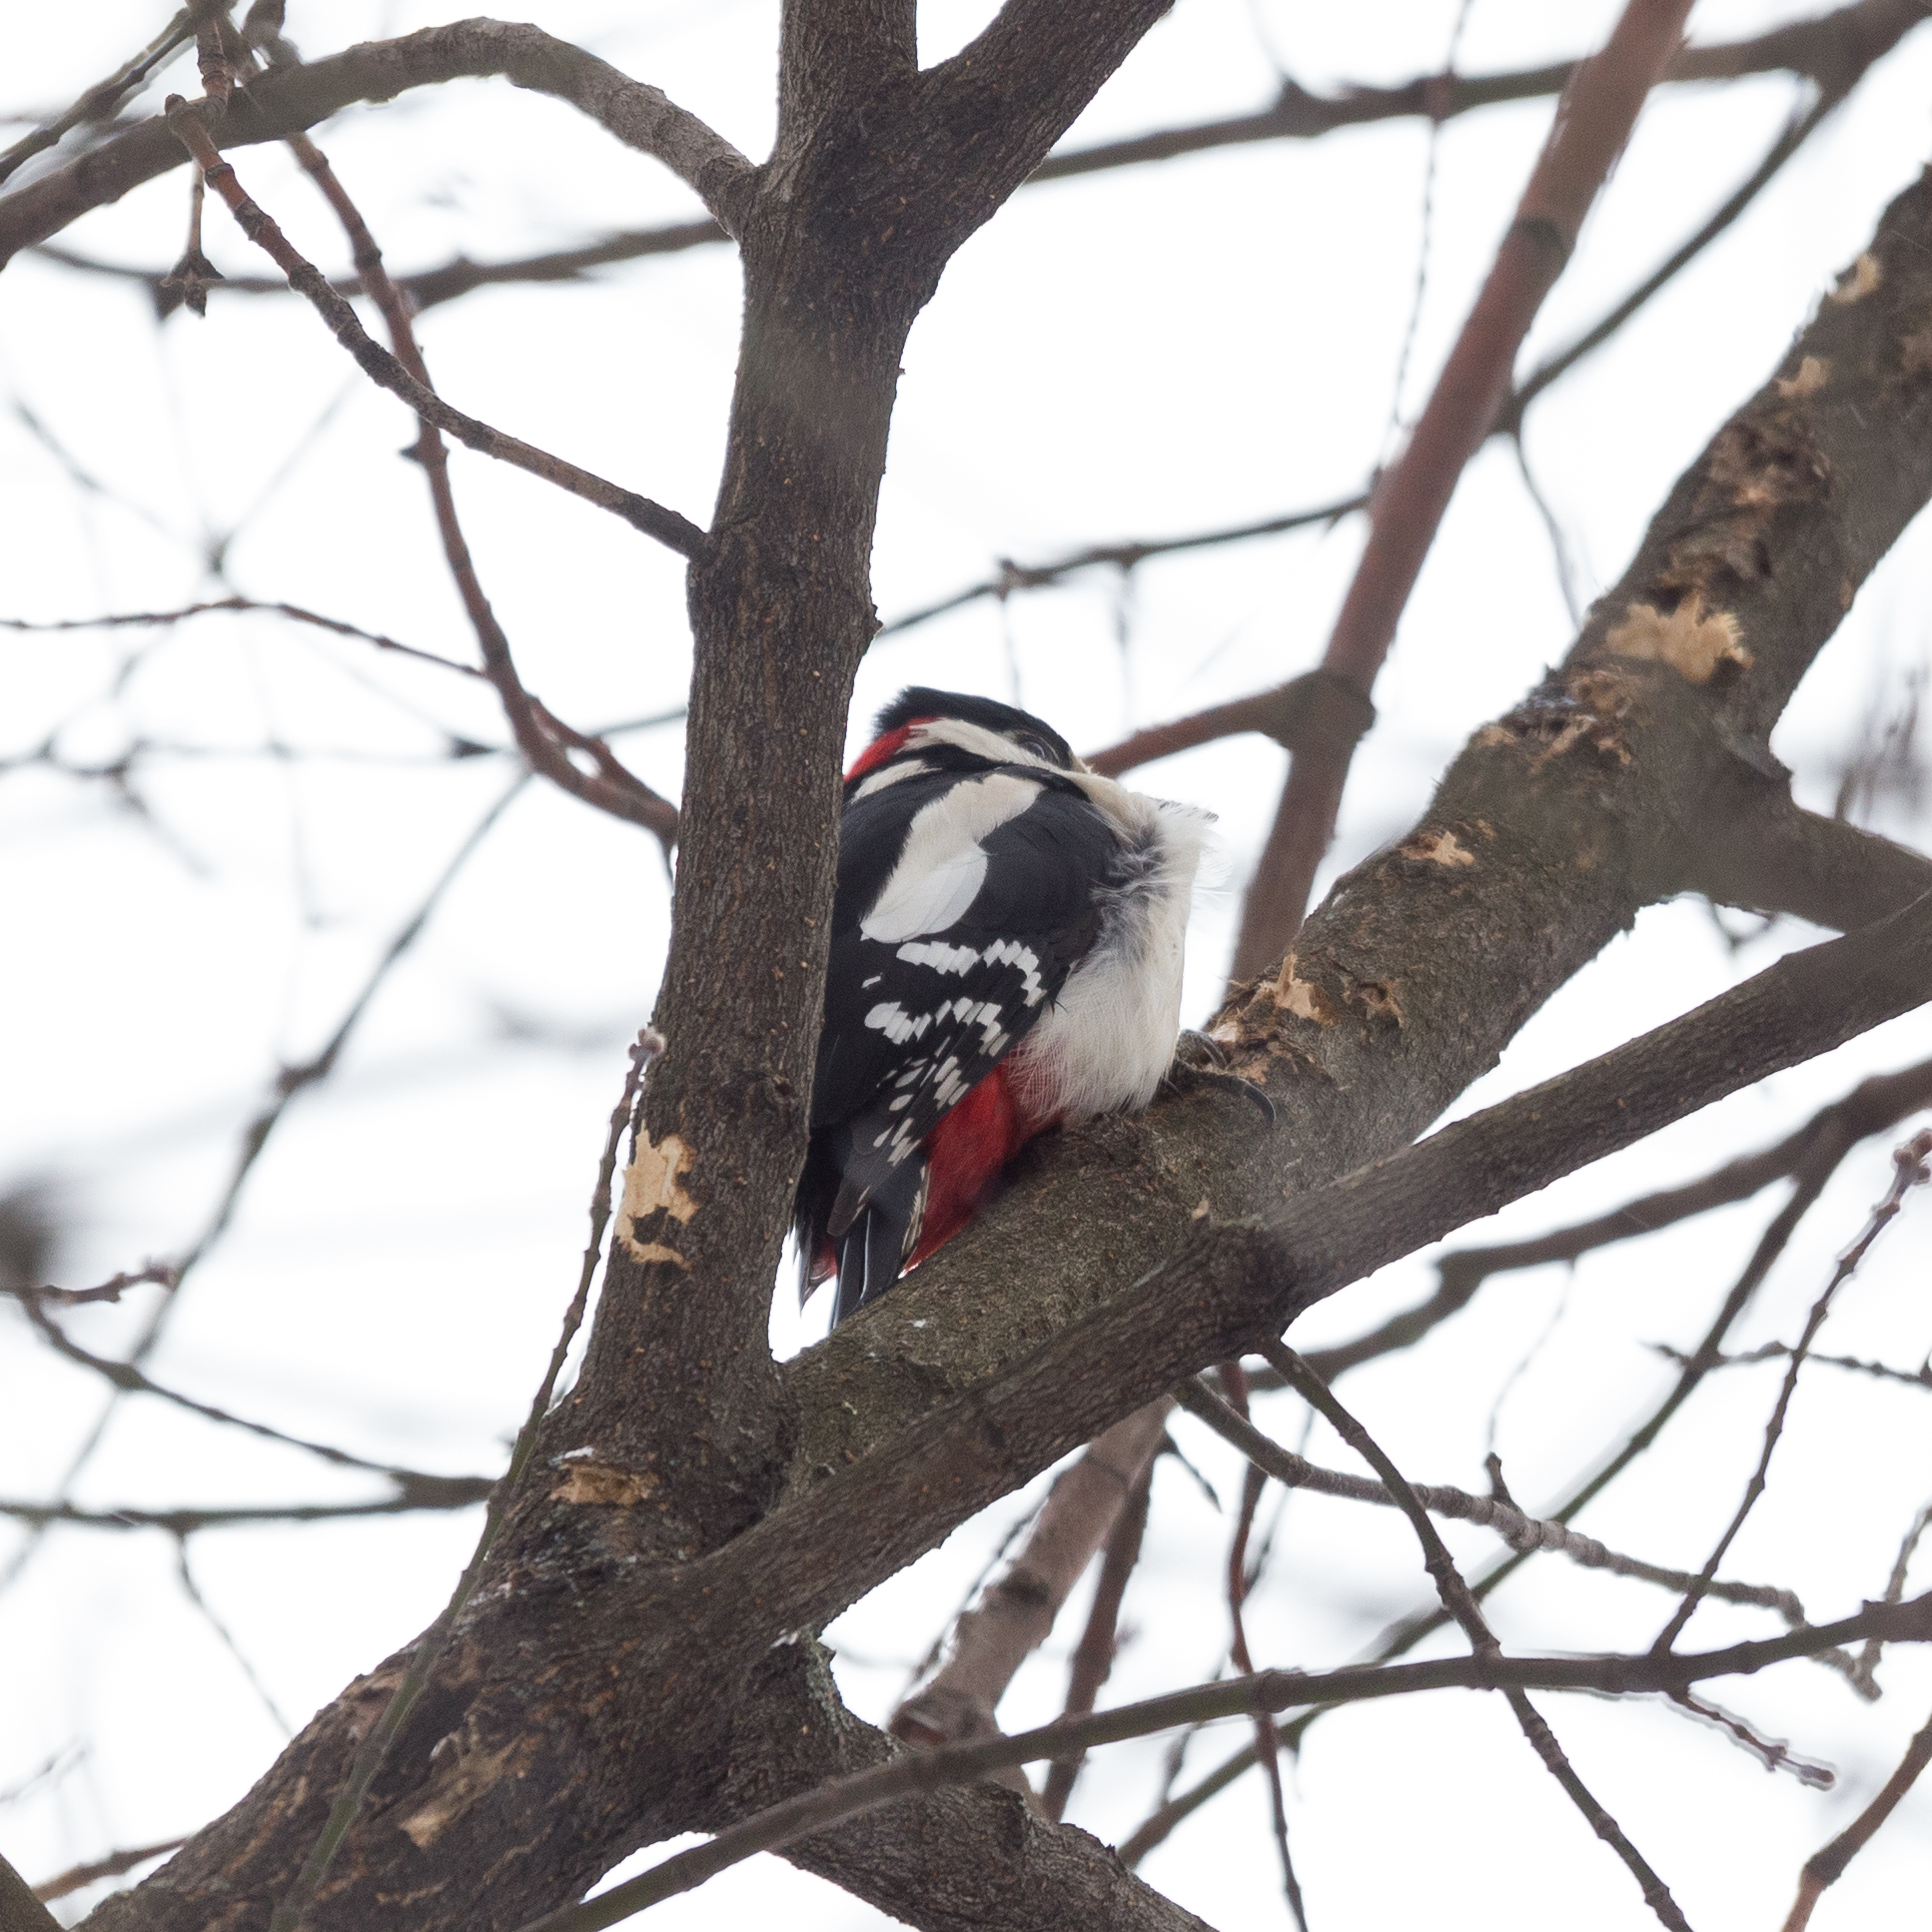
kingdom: Animalia
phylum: Chordata
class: Aves
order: Piciformes
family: Picidae
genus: Dendrocopos
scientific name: Dendrocopos major
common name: Great spotted woodpecker
